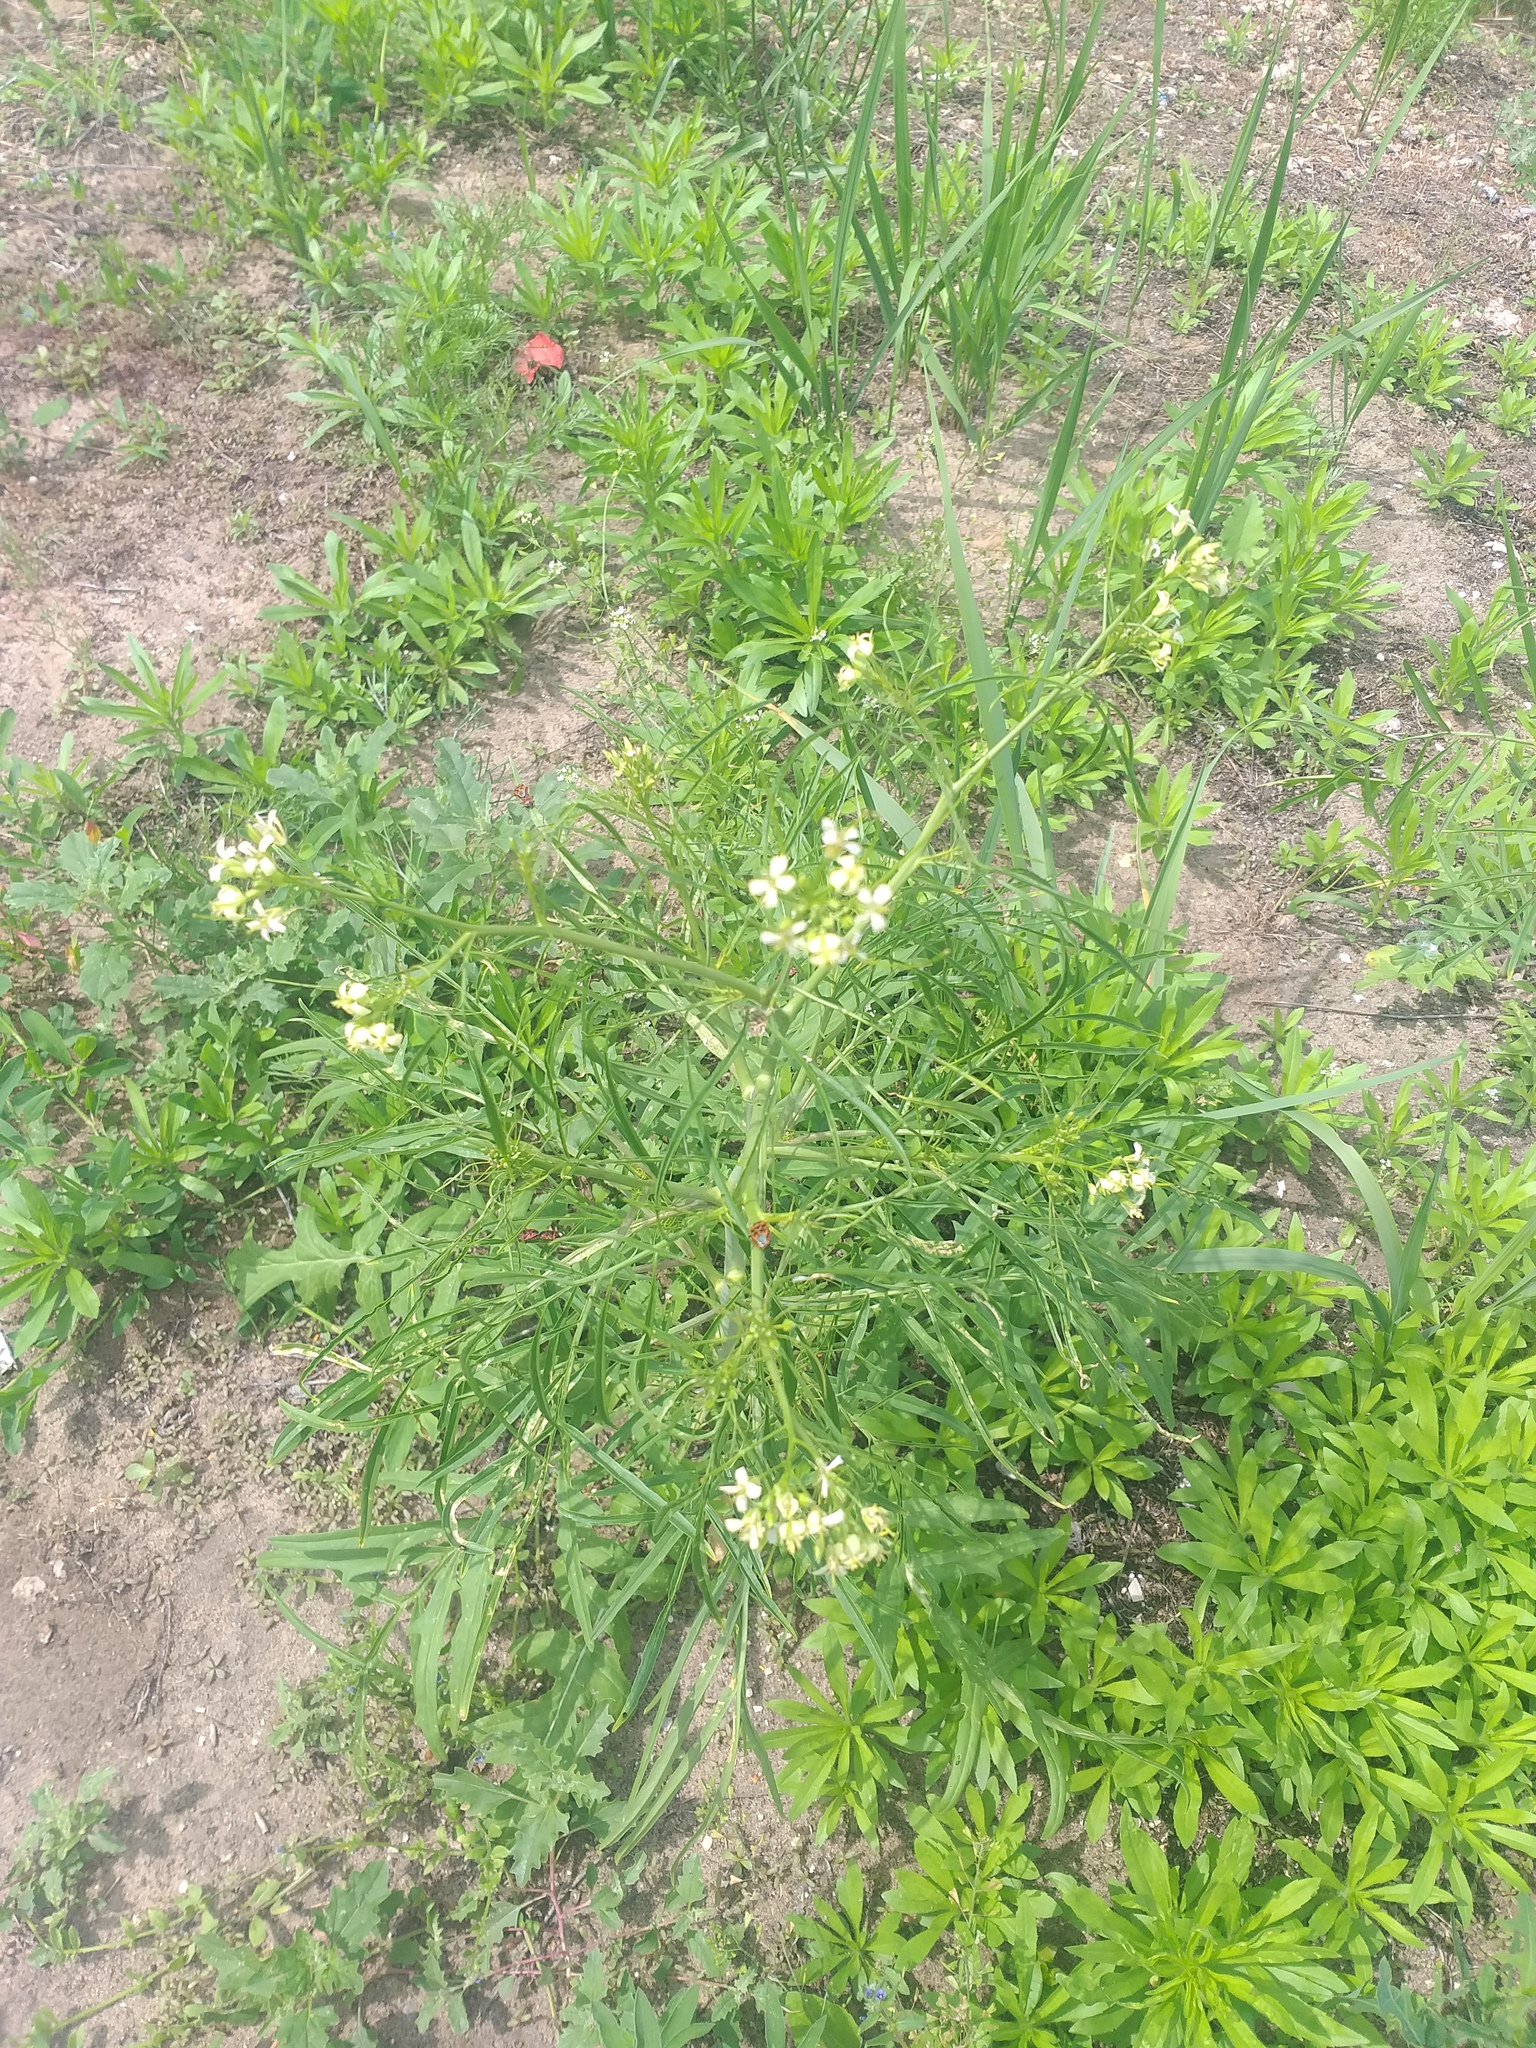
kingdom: Plantae
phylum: Tracheophyta
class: Magnoliopsida
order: Brassicales
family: Brassicaceae
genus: Sisymbrium
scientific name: Sisymbrium altissimum
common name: Tall rocket
